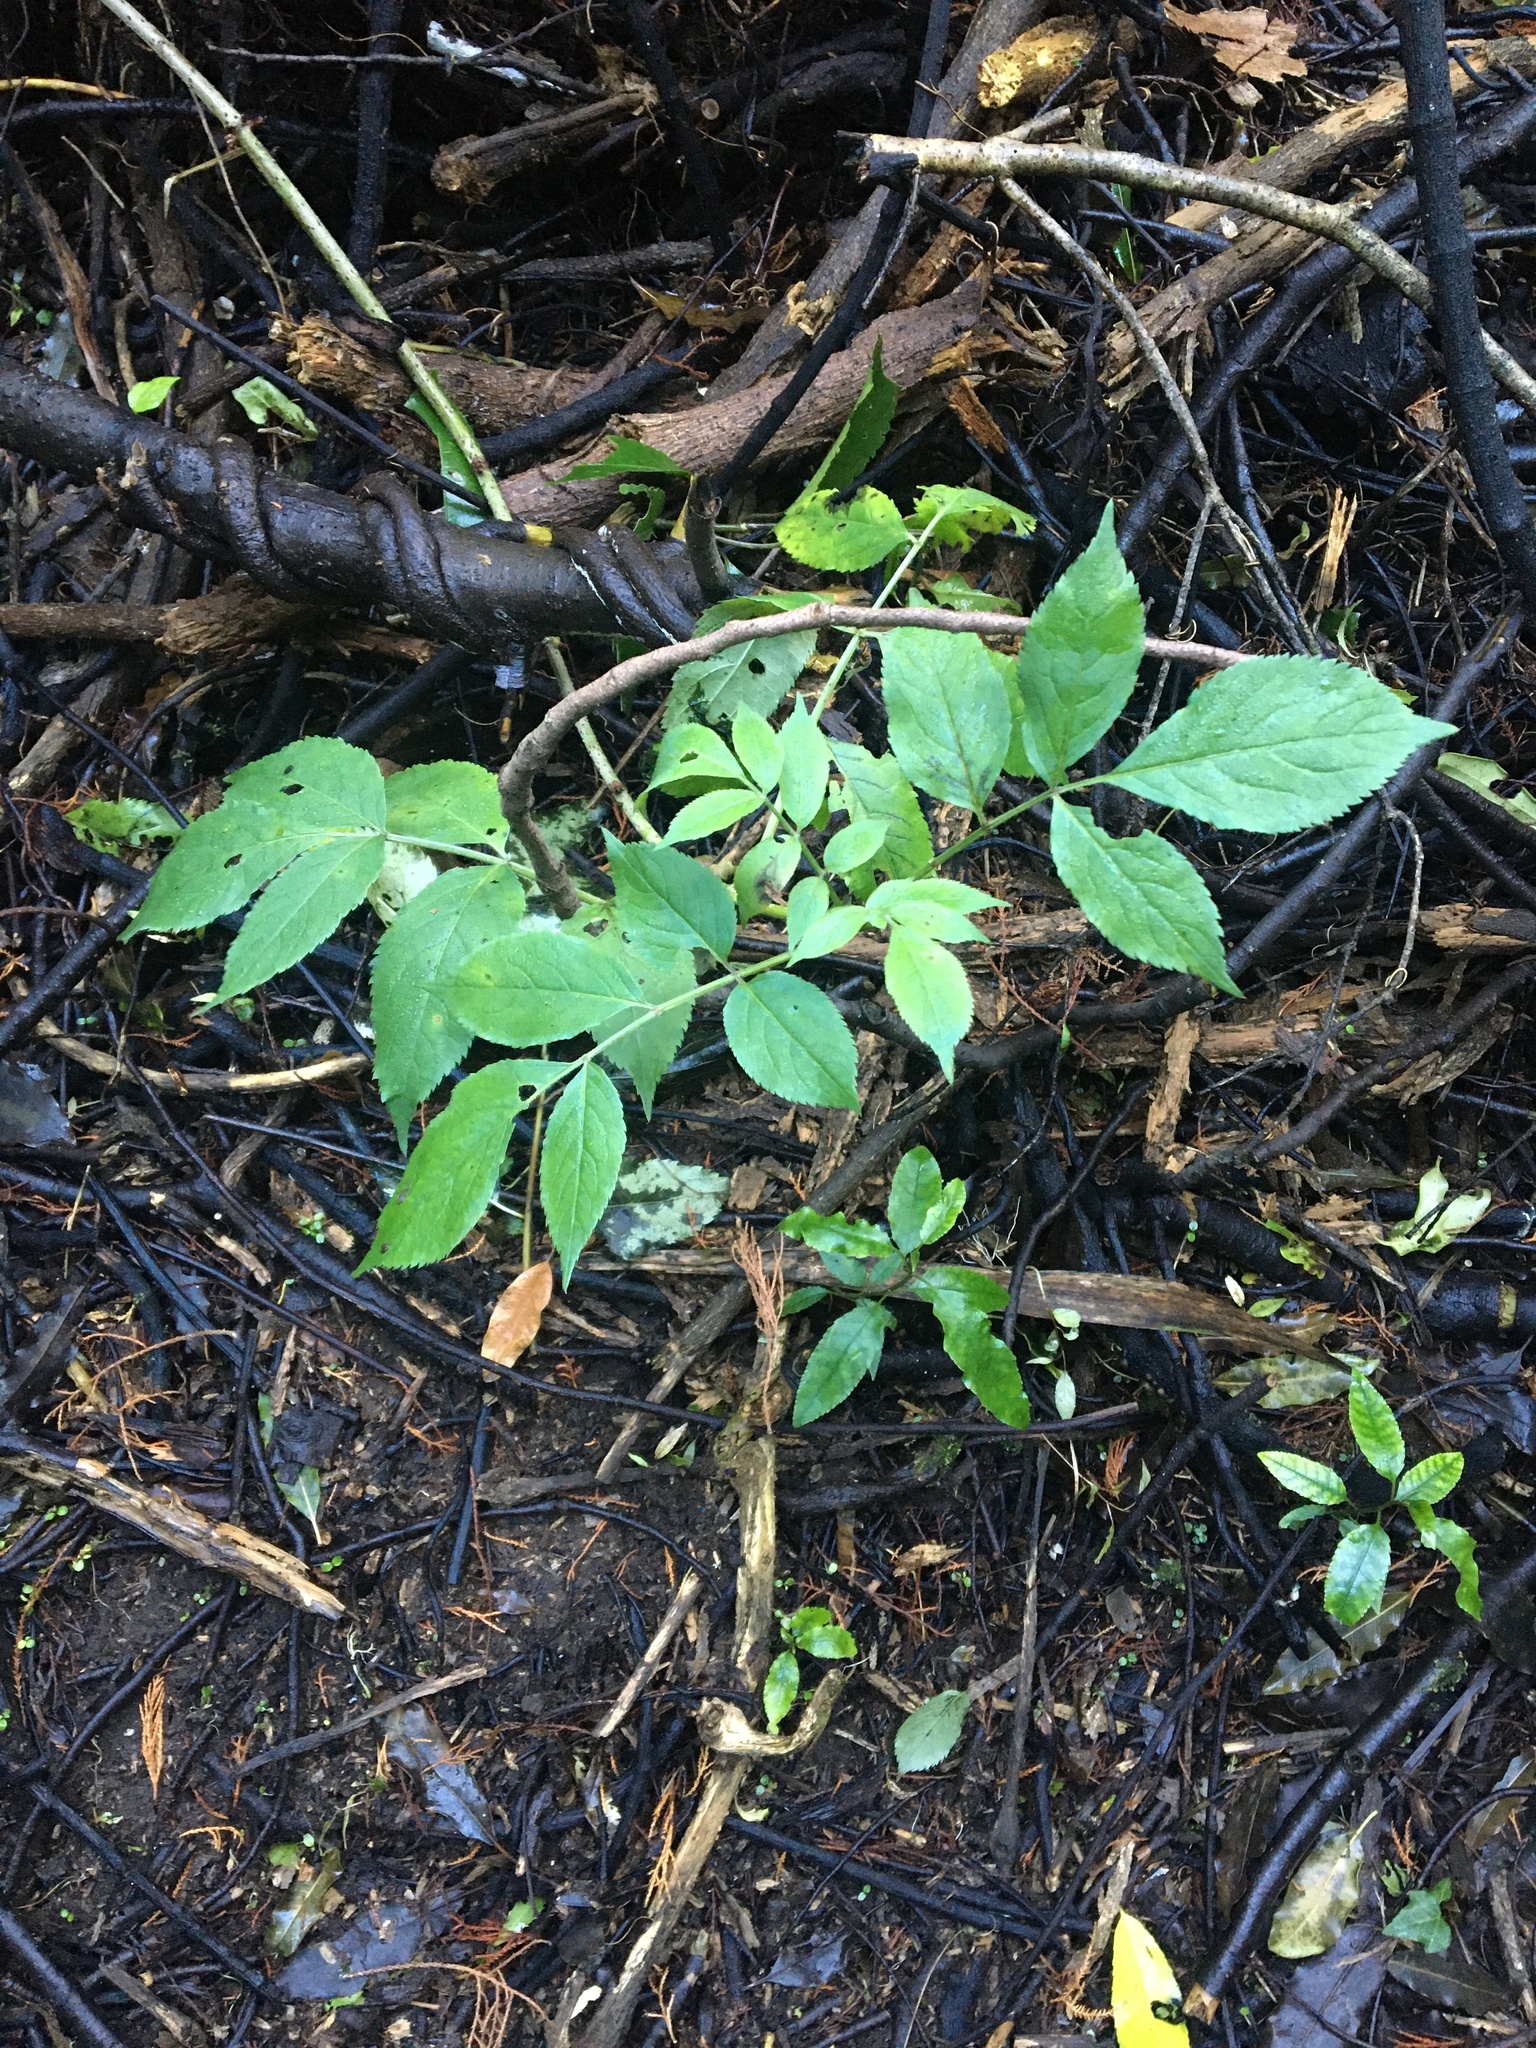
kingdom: Plantae
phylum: Tracheophyta
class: Magnoliopsida
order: Dipsacales
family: Viburnaceae
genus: Sambucus
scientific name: Sambucus nigra
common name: Elder
